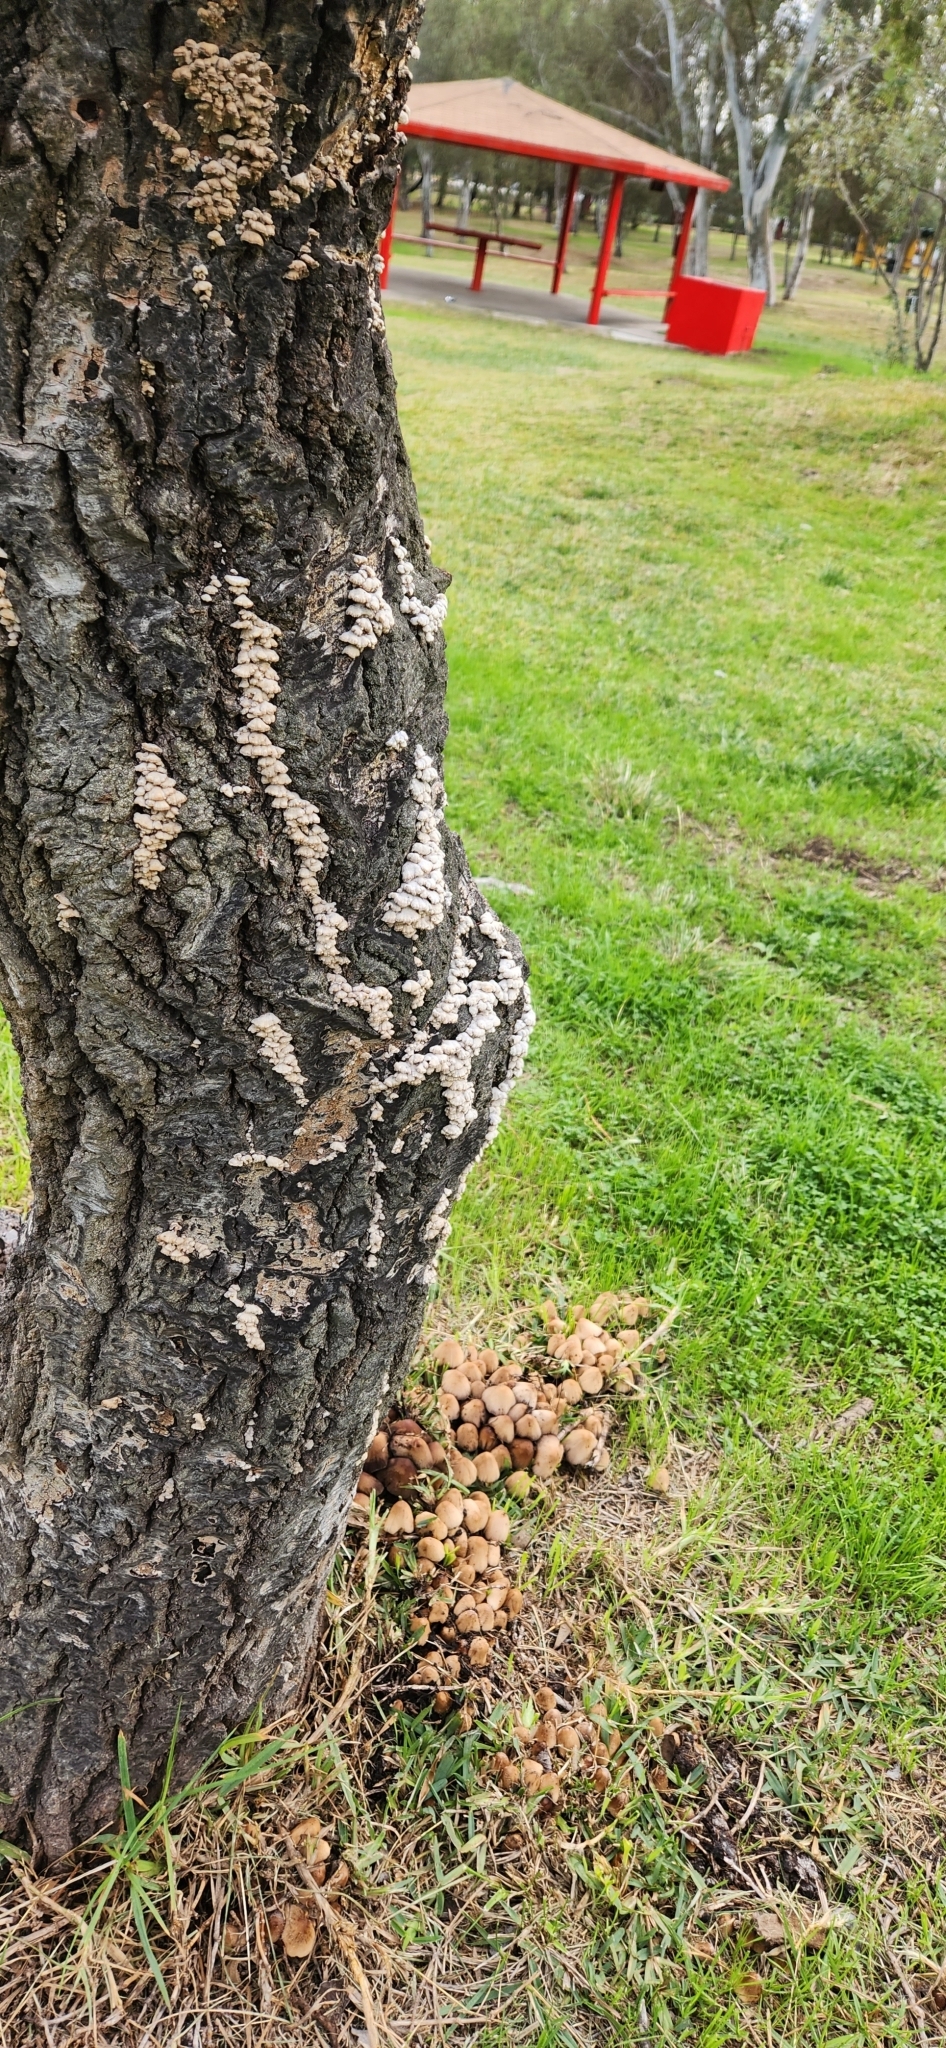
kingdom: Fungi
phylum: Basidiomycota
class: Agaricomycetes
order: Agaricales
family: Schizophyllaceae
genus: Schizophyllum
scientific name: Schizophyllum commune
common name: Common porecrust
